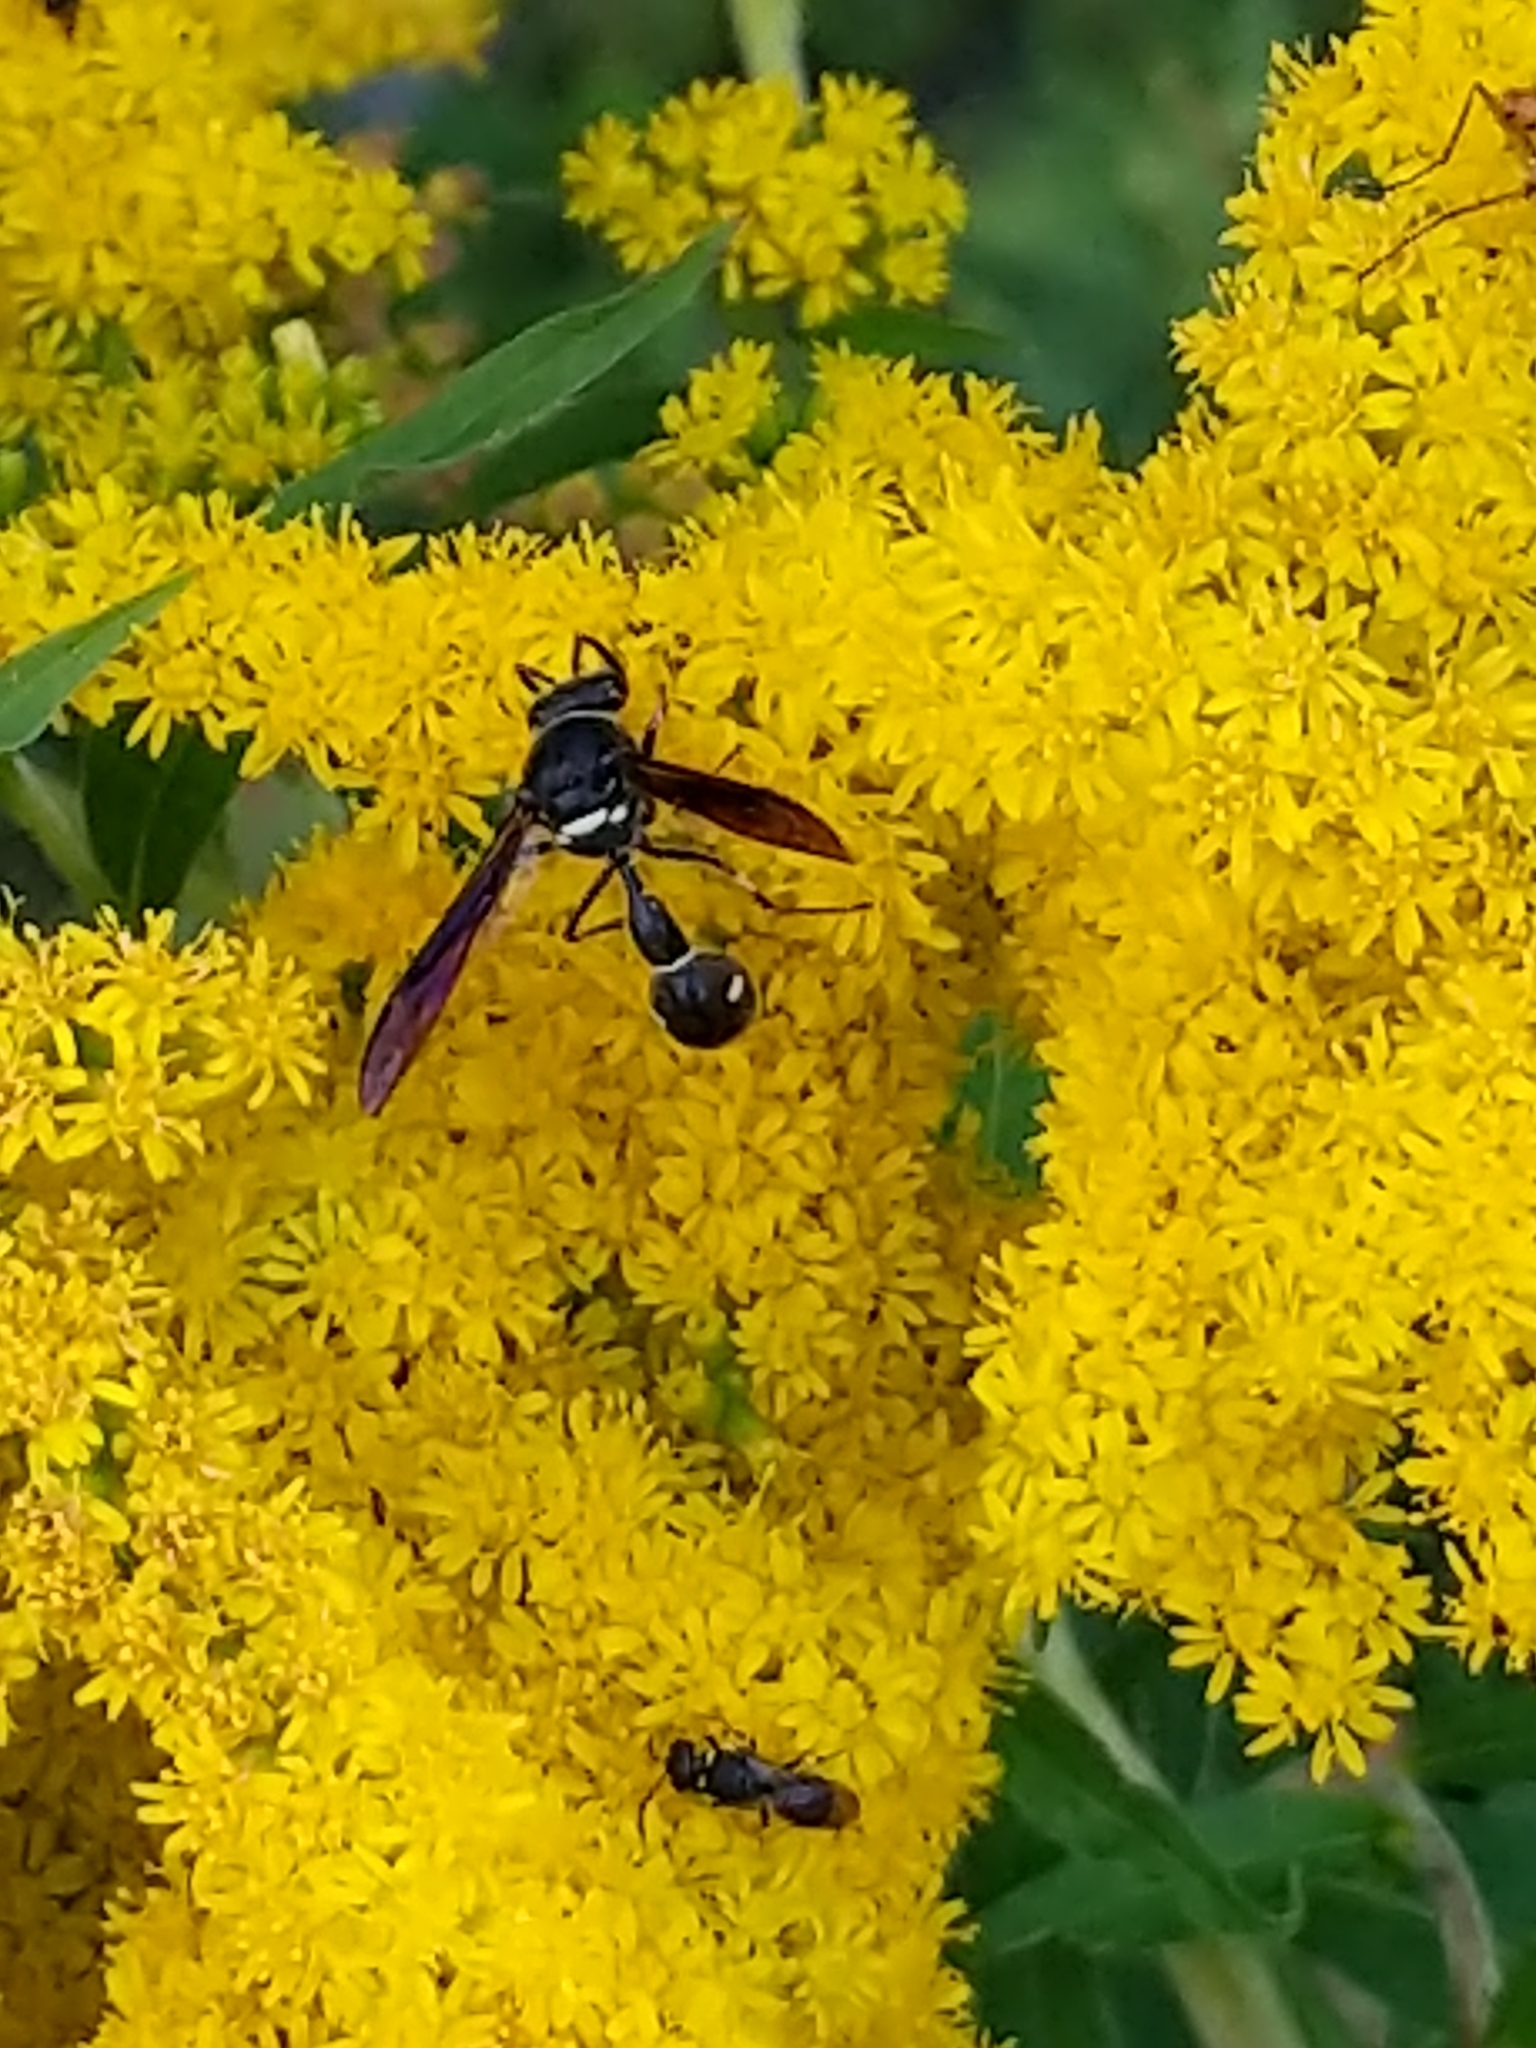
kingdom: Animalia
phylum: Arthropoda
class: Insecta
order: Hymenoptera
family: Vespidae
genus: Eumenes
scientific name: Eumenes fraternus
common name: Fraternal potter wasp
